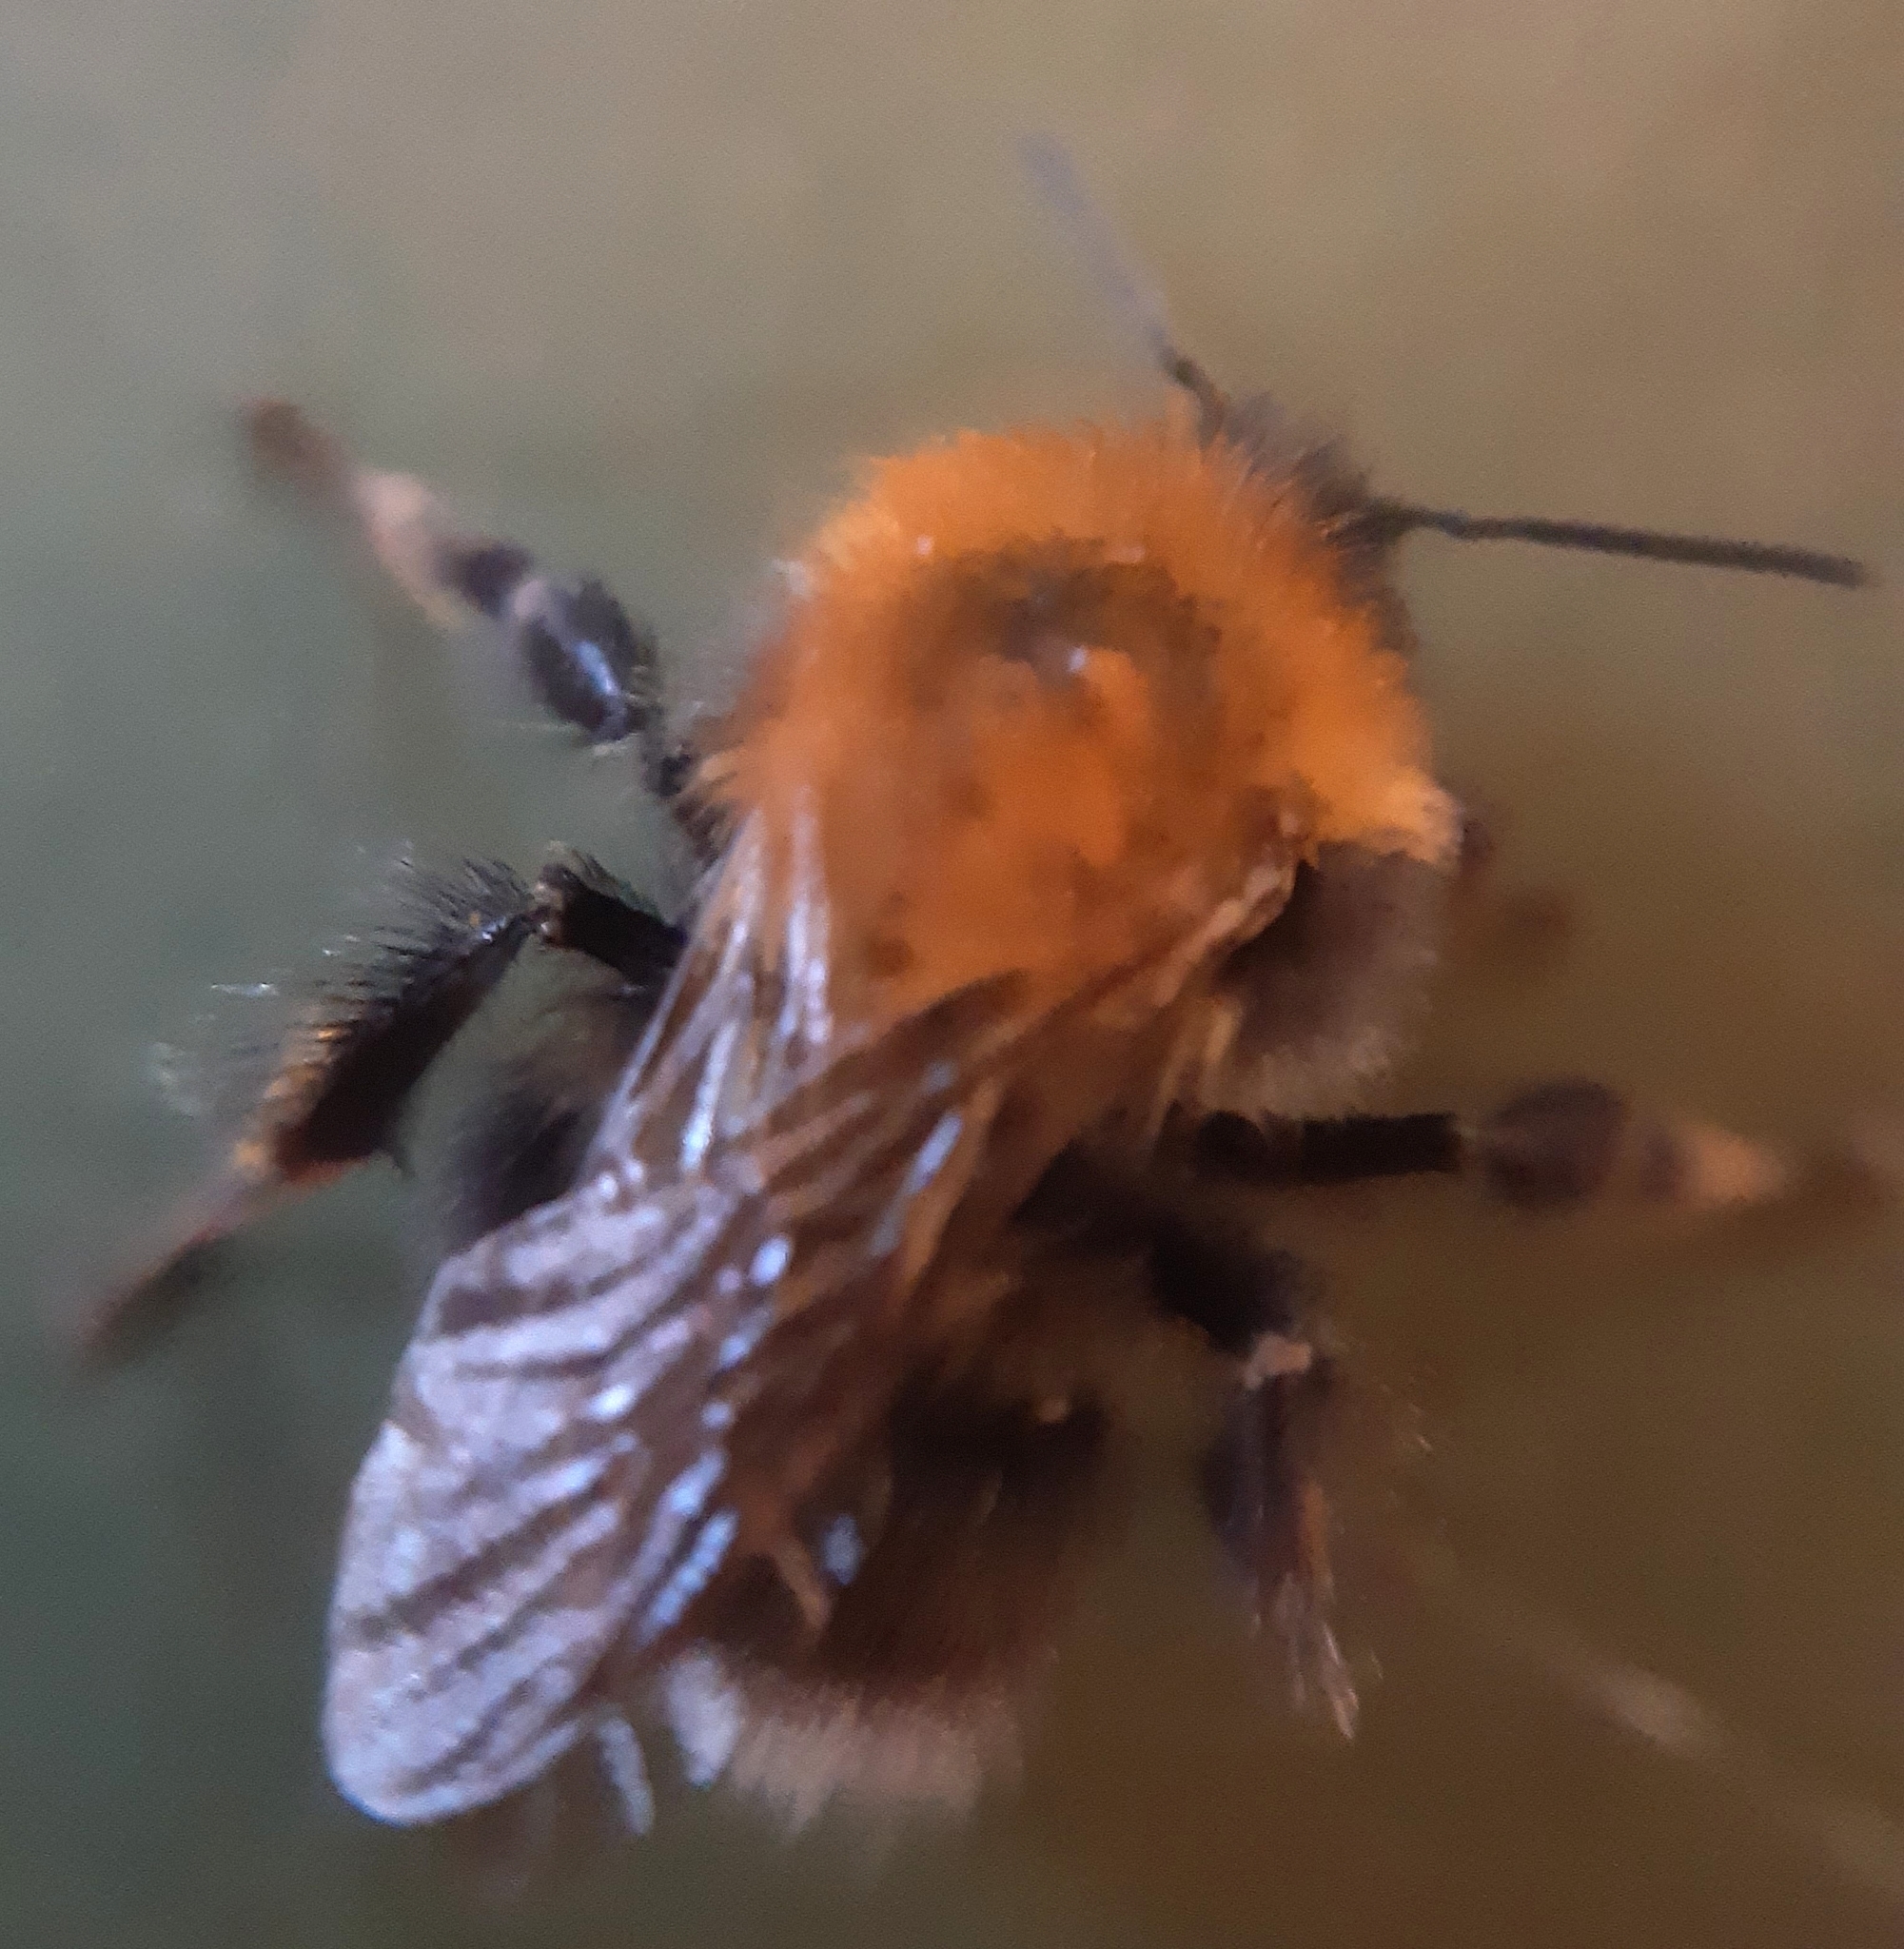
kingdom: Animalia
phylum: Arthropoda
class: Insecta
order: Hymenoptera
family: Apidae
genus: Bombus
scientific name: Bombus hypnorum
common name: New garden bumblebee
